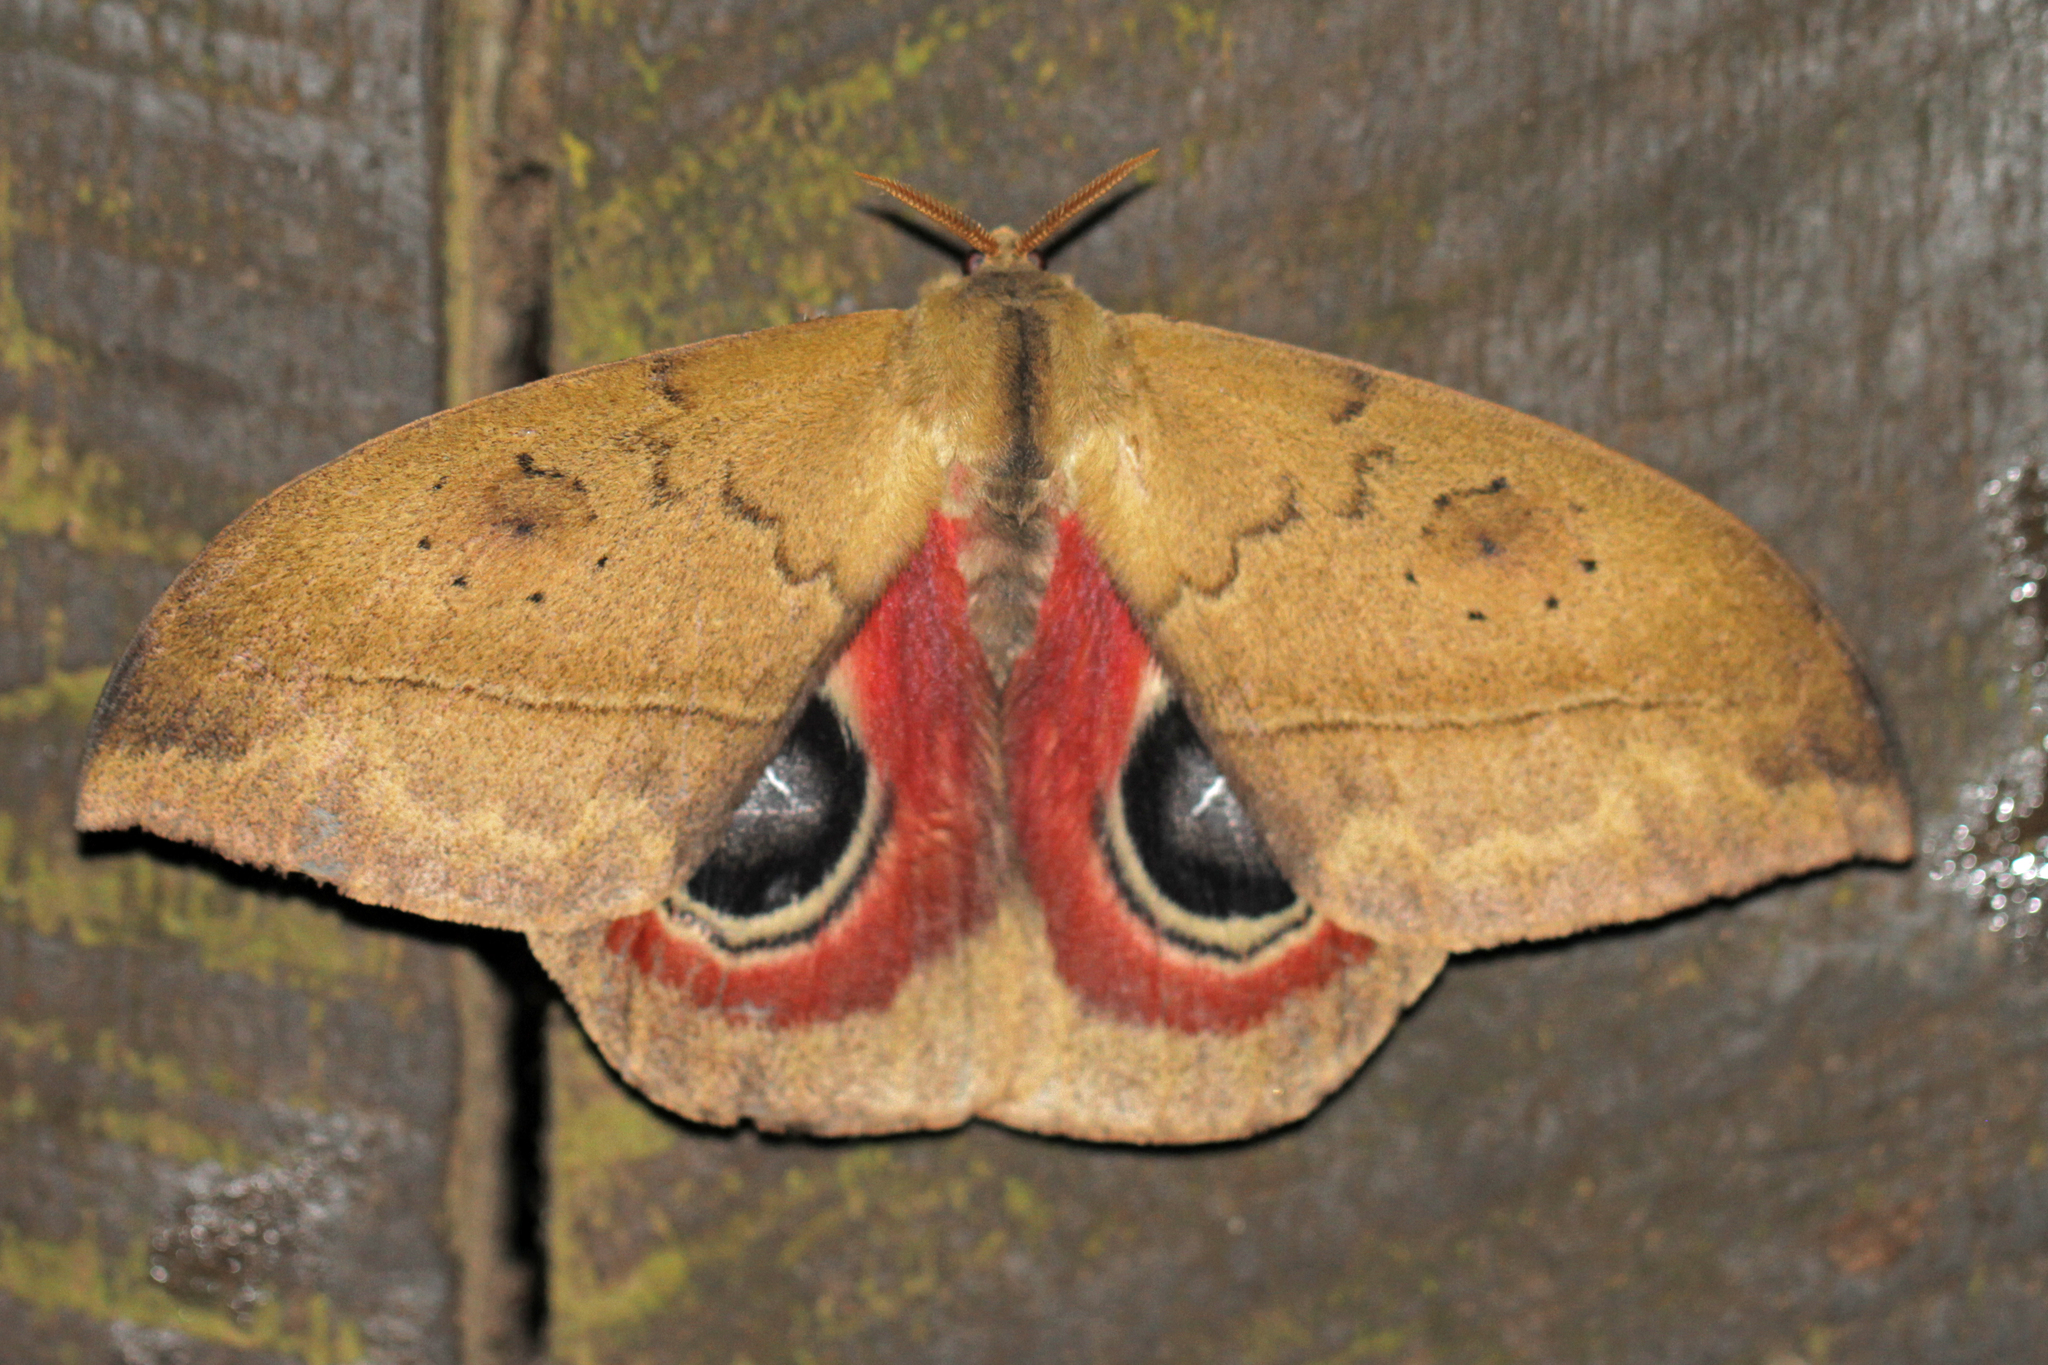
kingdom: Animalia
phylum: Arthropoda
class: Insecta
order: Lepidoptera
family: Saturniidae
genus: Automeris
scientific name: Automeris exigua
